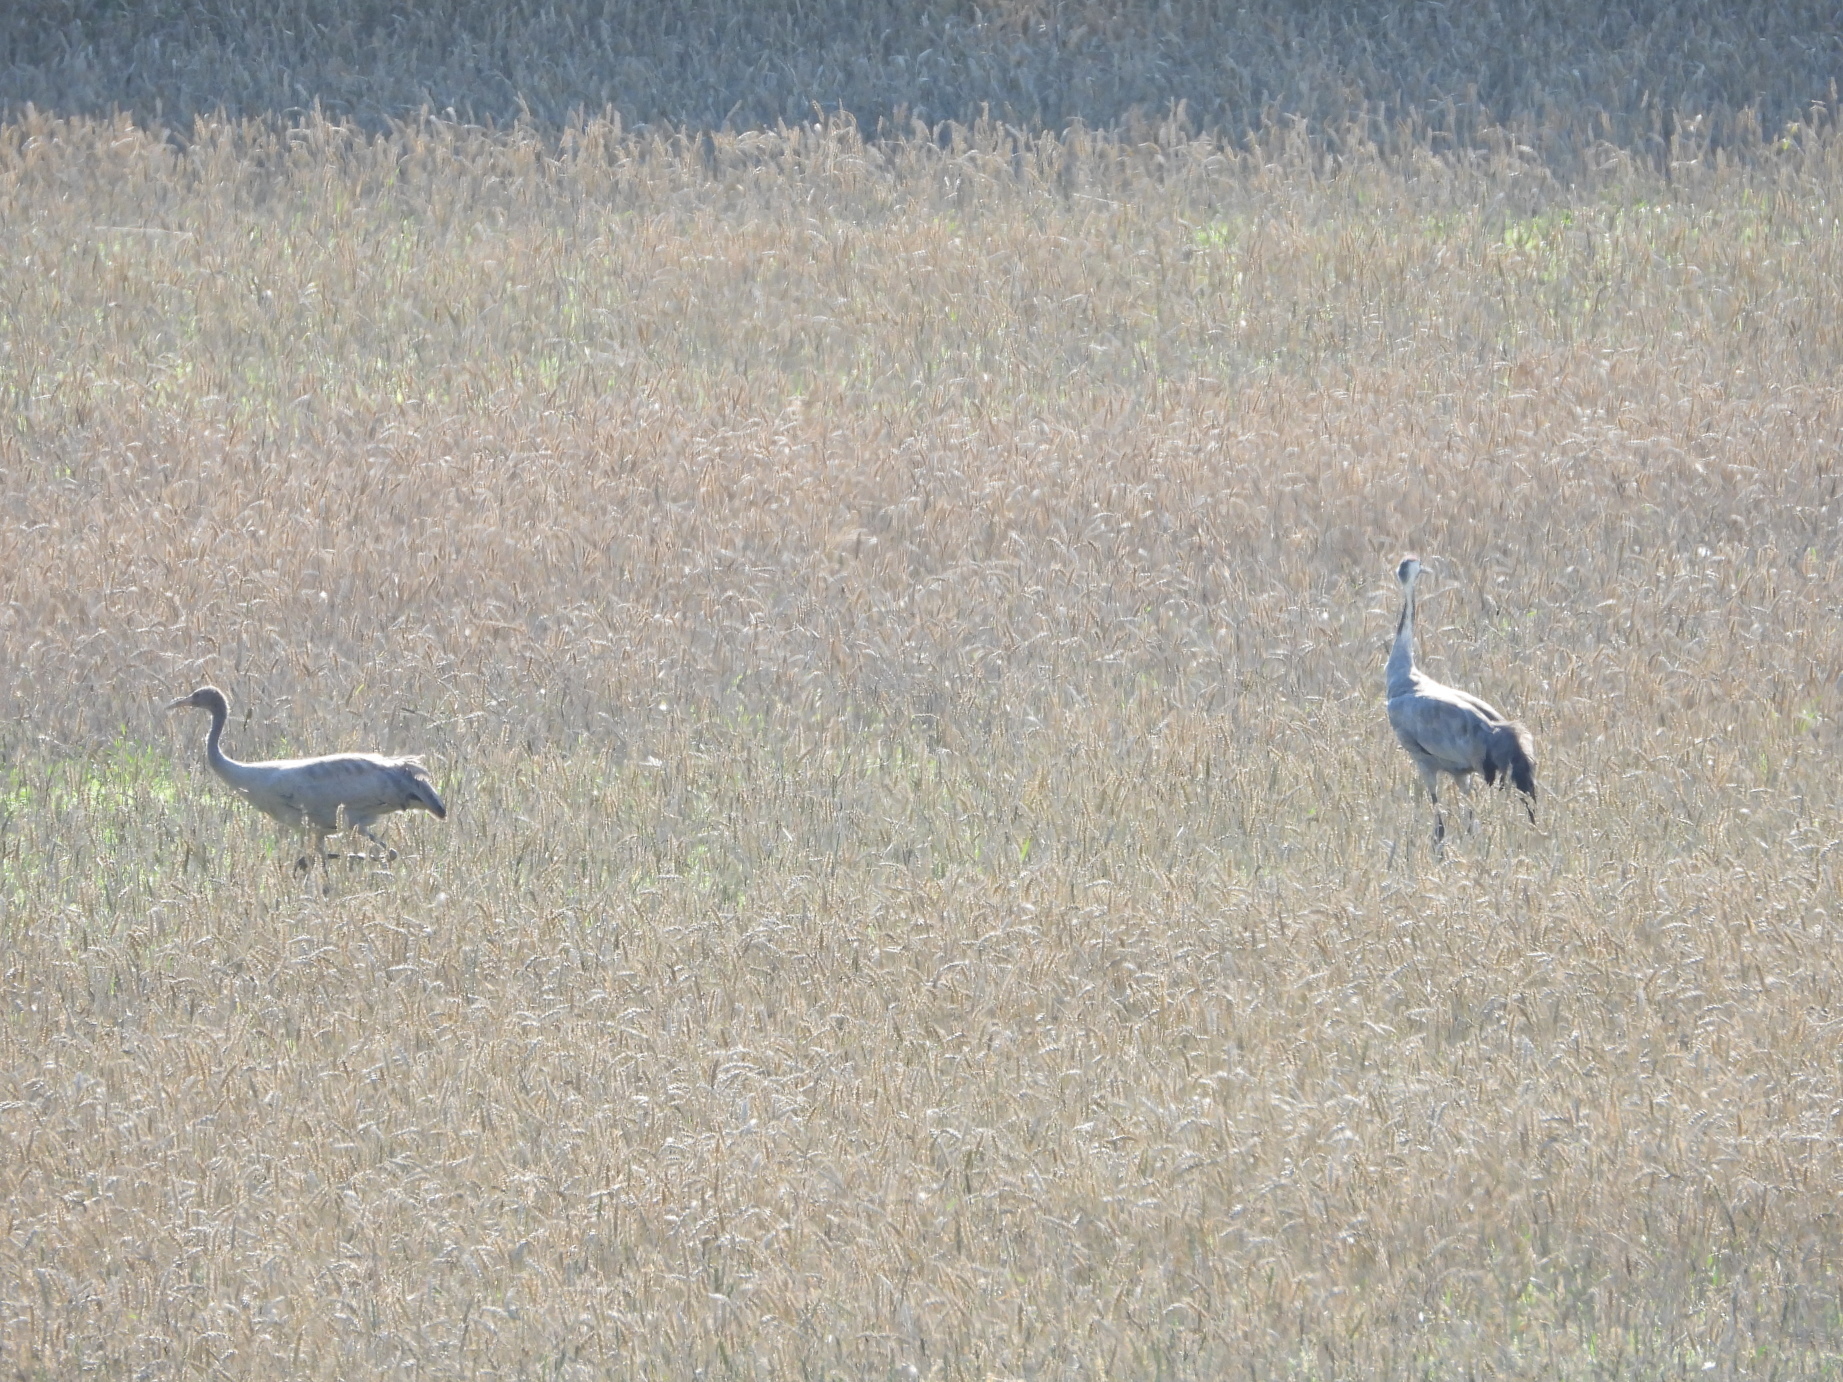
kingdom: Animalia
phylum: Chordata
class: Aves
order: Gruiformes
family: Gruidae
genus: Grus
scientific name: Grus grus
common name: Common crane
